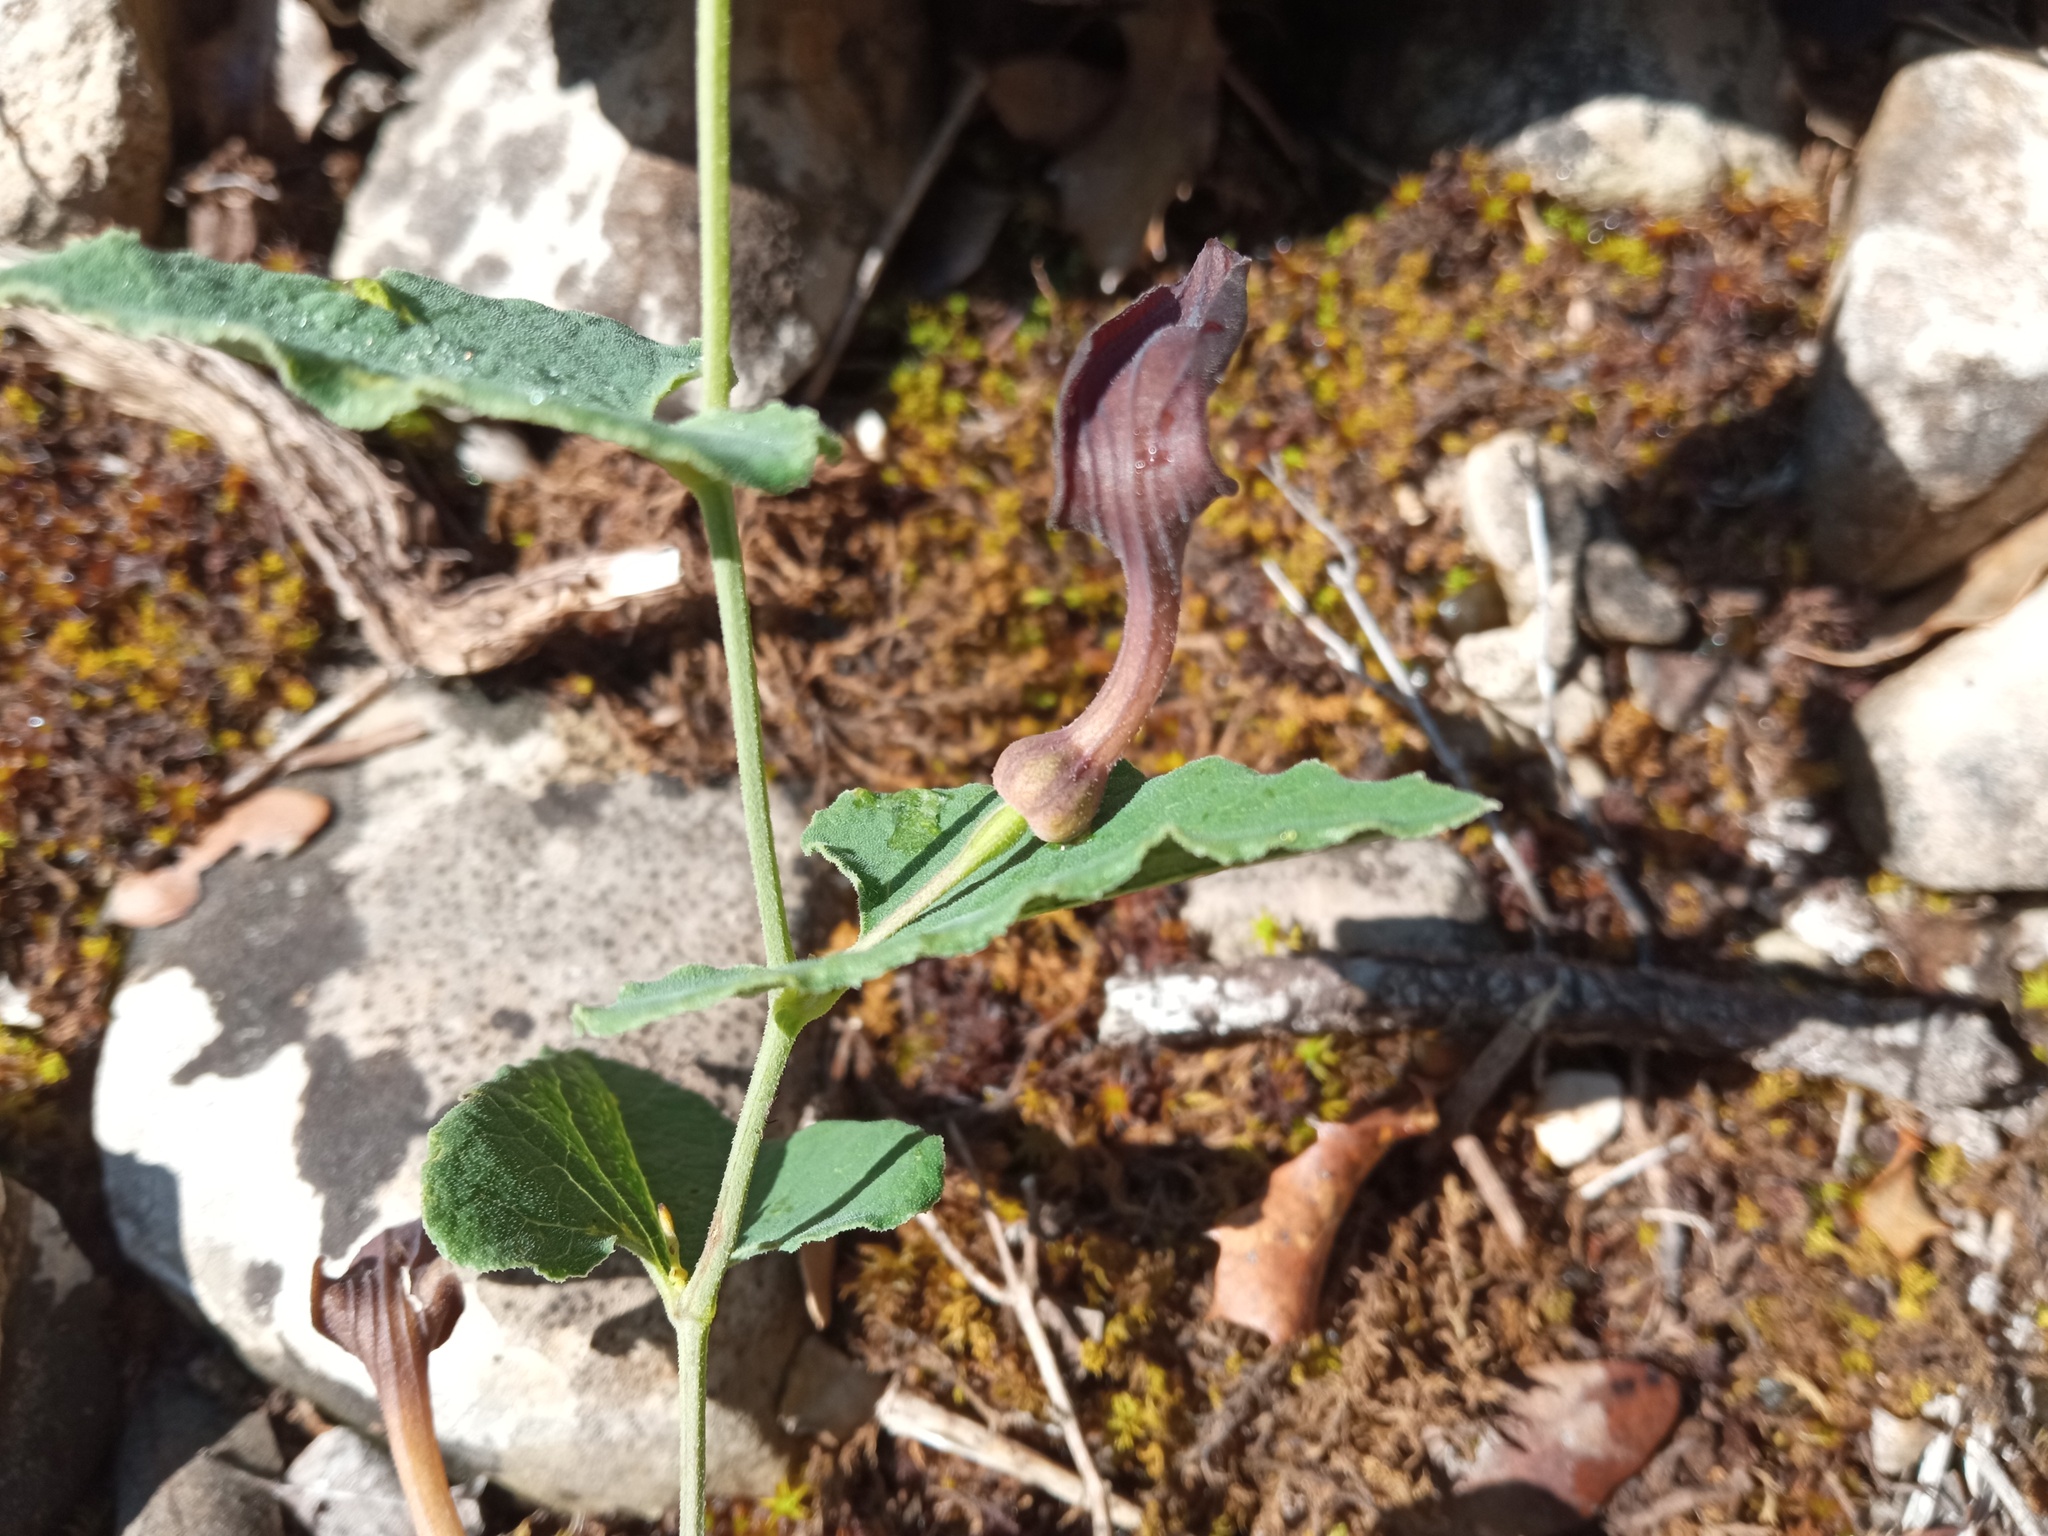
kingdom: Plantae
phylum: Tracheophyta
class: Magnoliopsida
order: Piperales
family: Aristolochiaceae
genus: Aristolochia
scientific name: Aristolochia pistolochia
